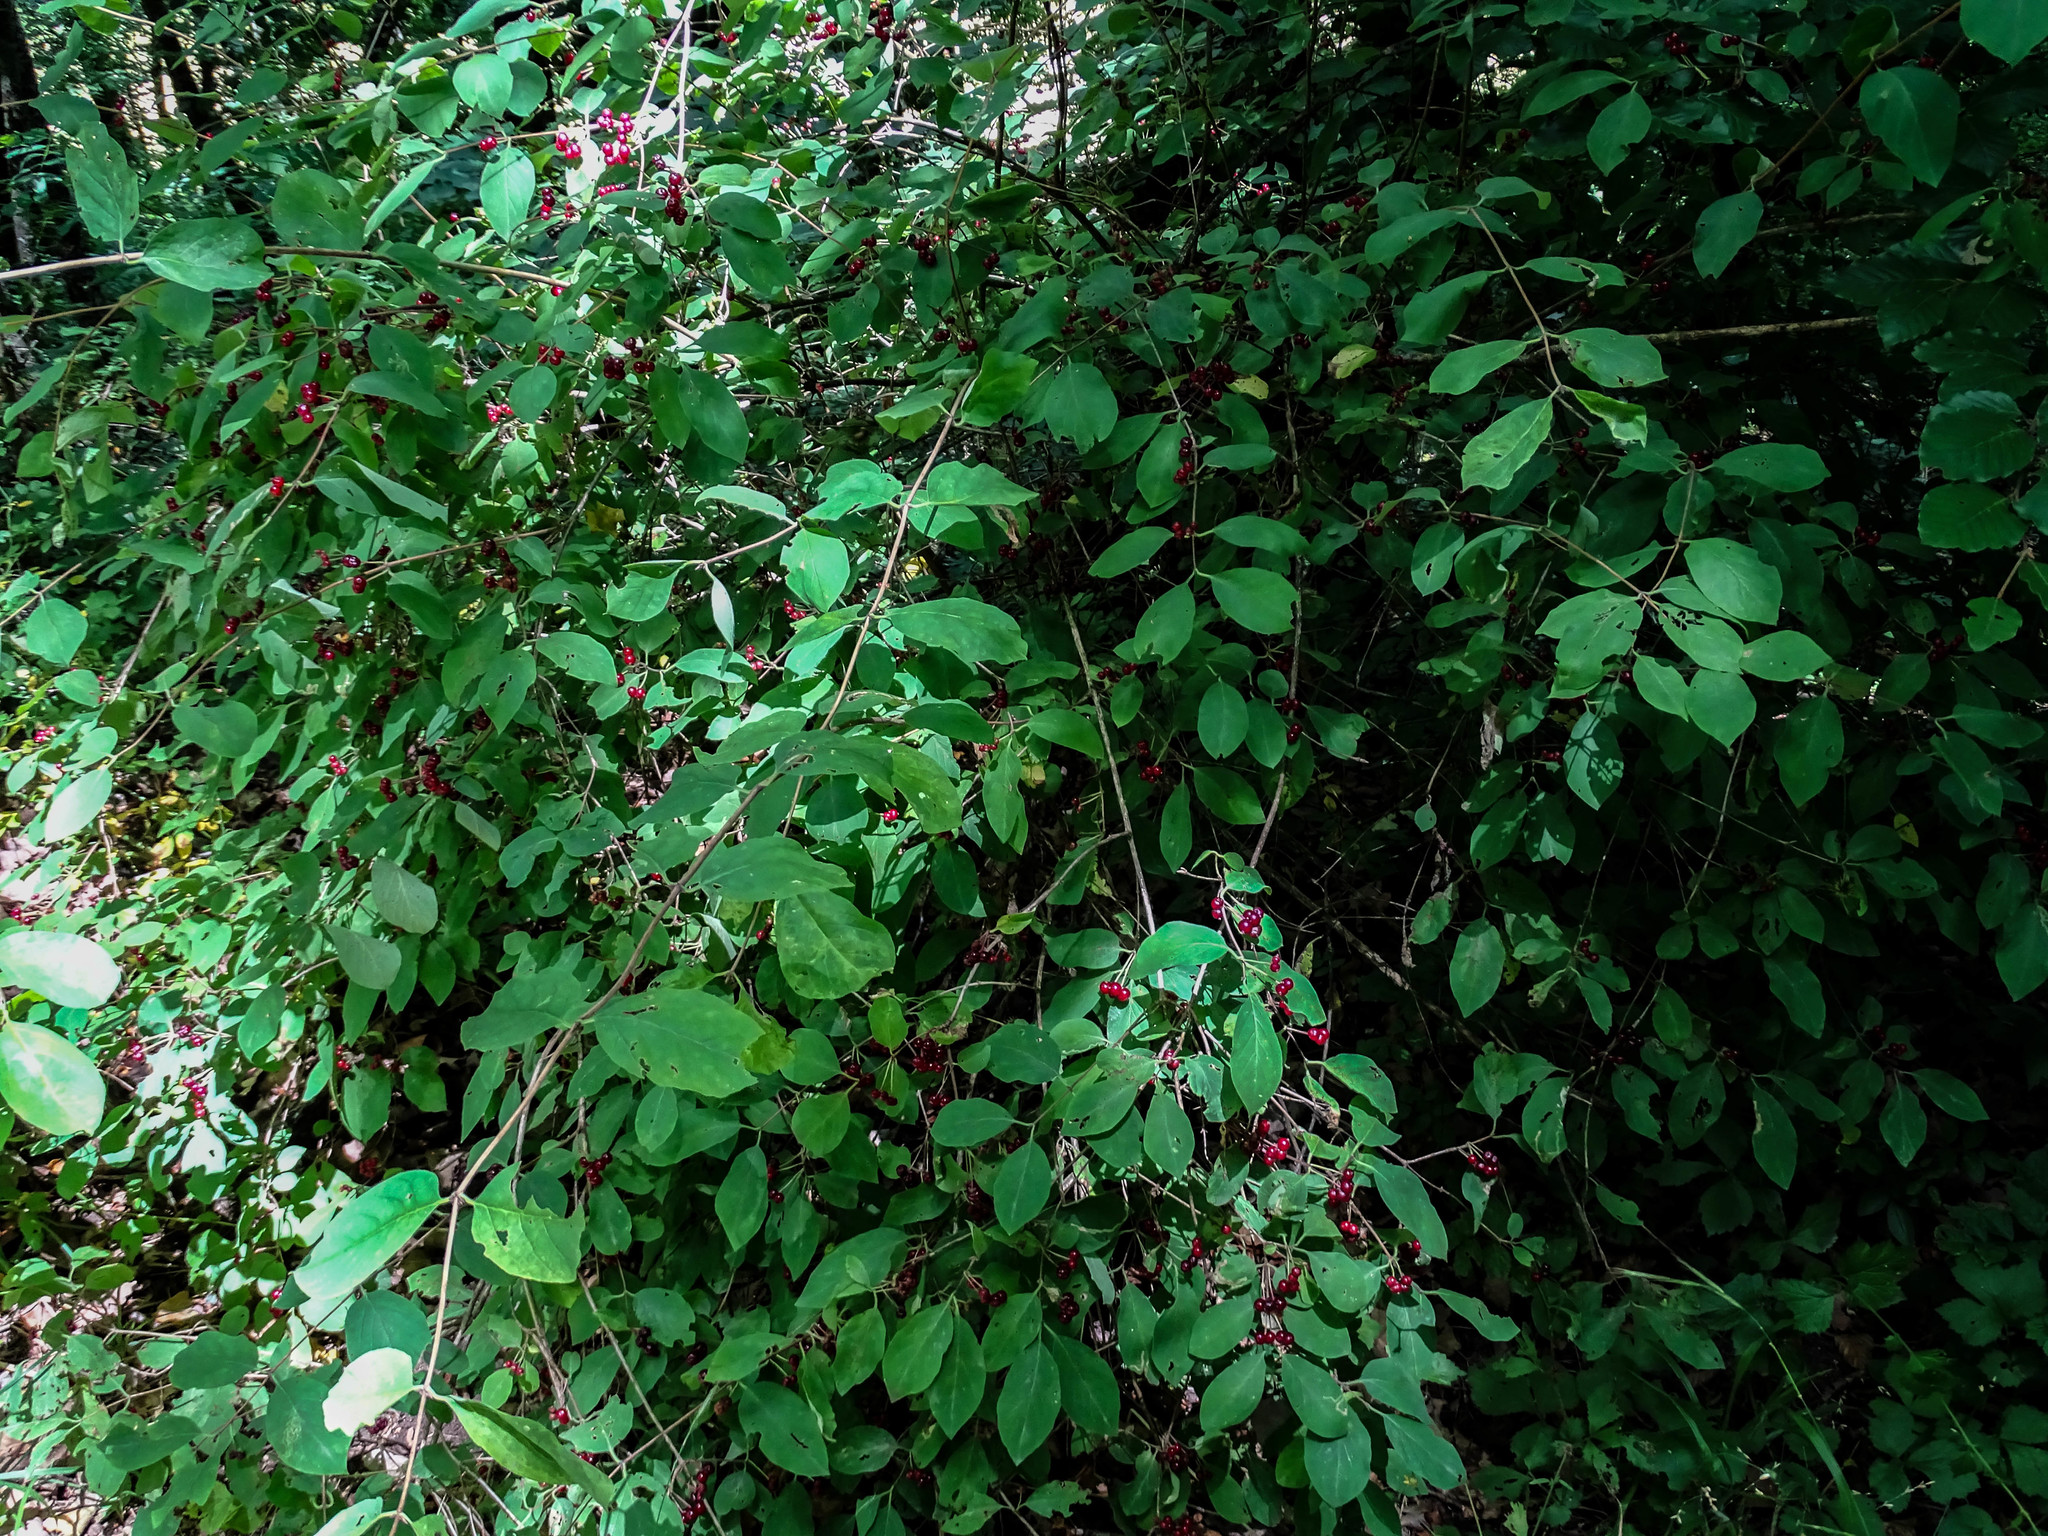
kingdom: Plantae
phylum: Tracheophyta
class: Magnoliopsida
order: Dipsacales
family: Caprifoliaceae
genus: Lonicera
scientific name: Lonicera xylosteum
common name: Fly honeysuckle
